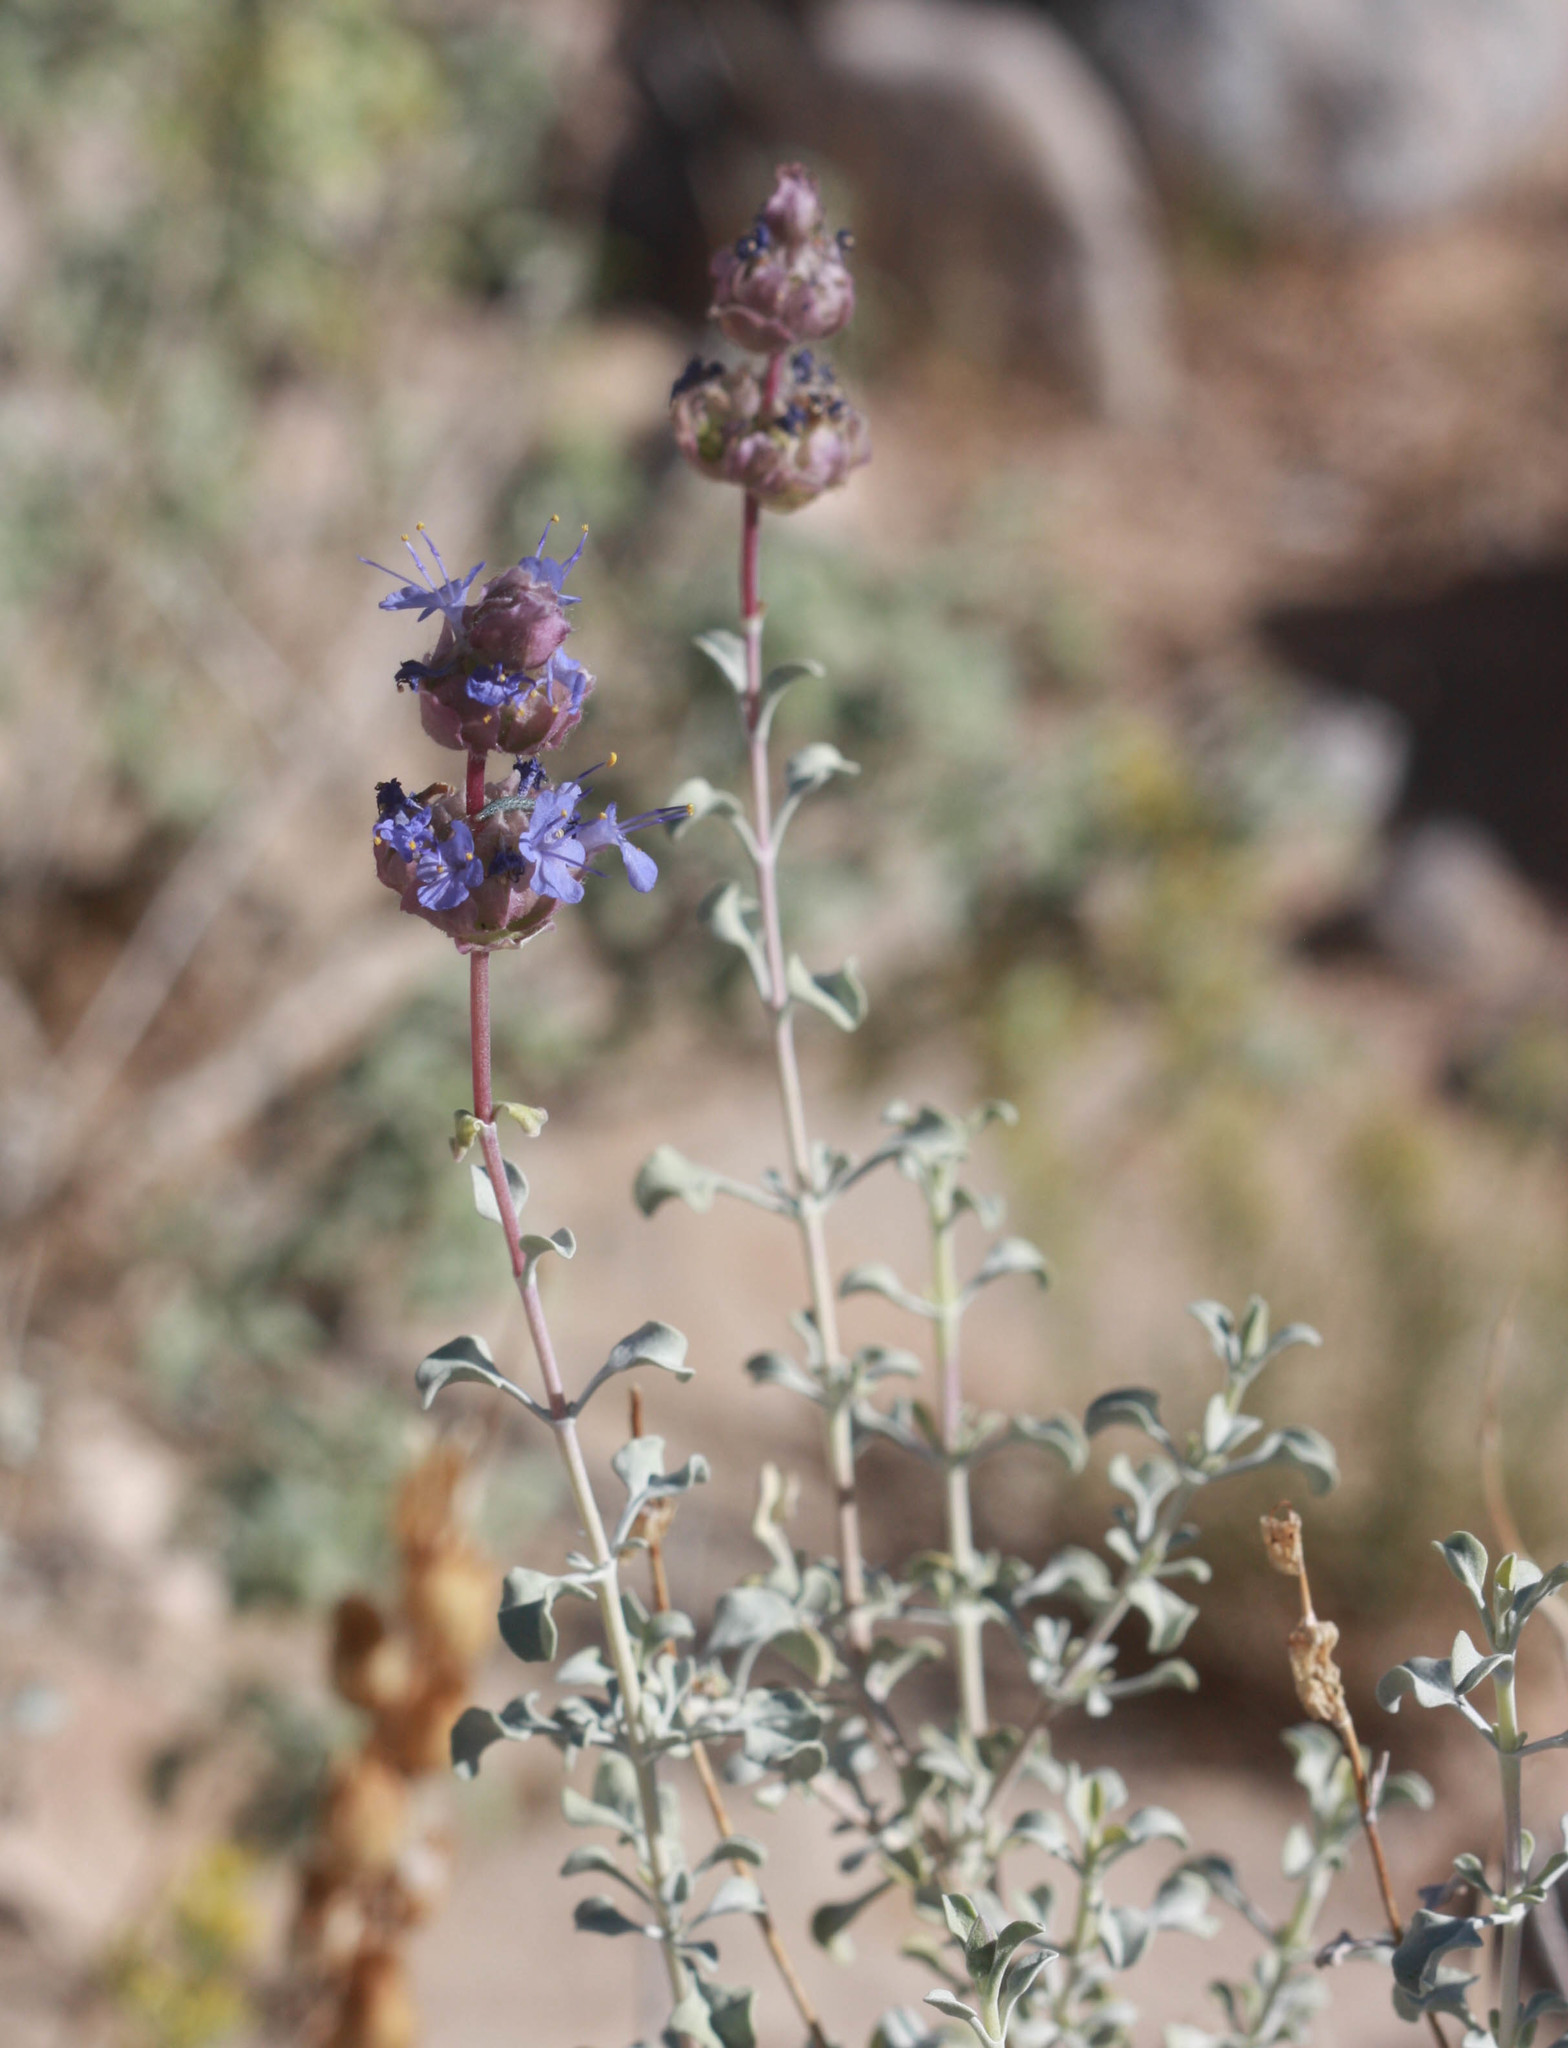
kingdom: Plantae
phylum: Tracheophyta
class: Magnoliopsida
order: Lamiales
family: Lamiaceae
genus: Salvia
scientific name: Salvia dorrii
